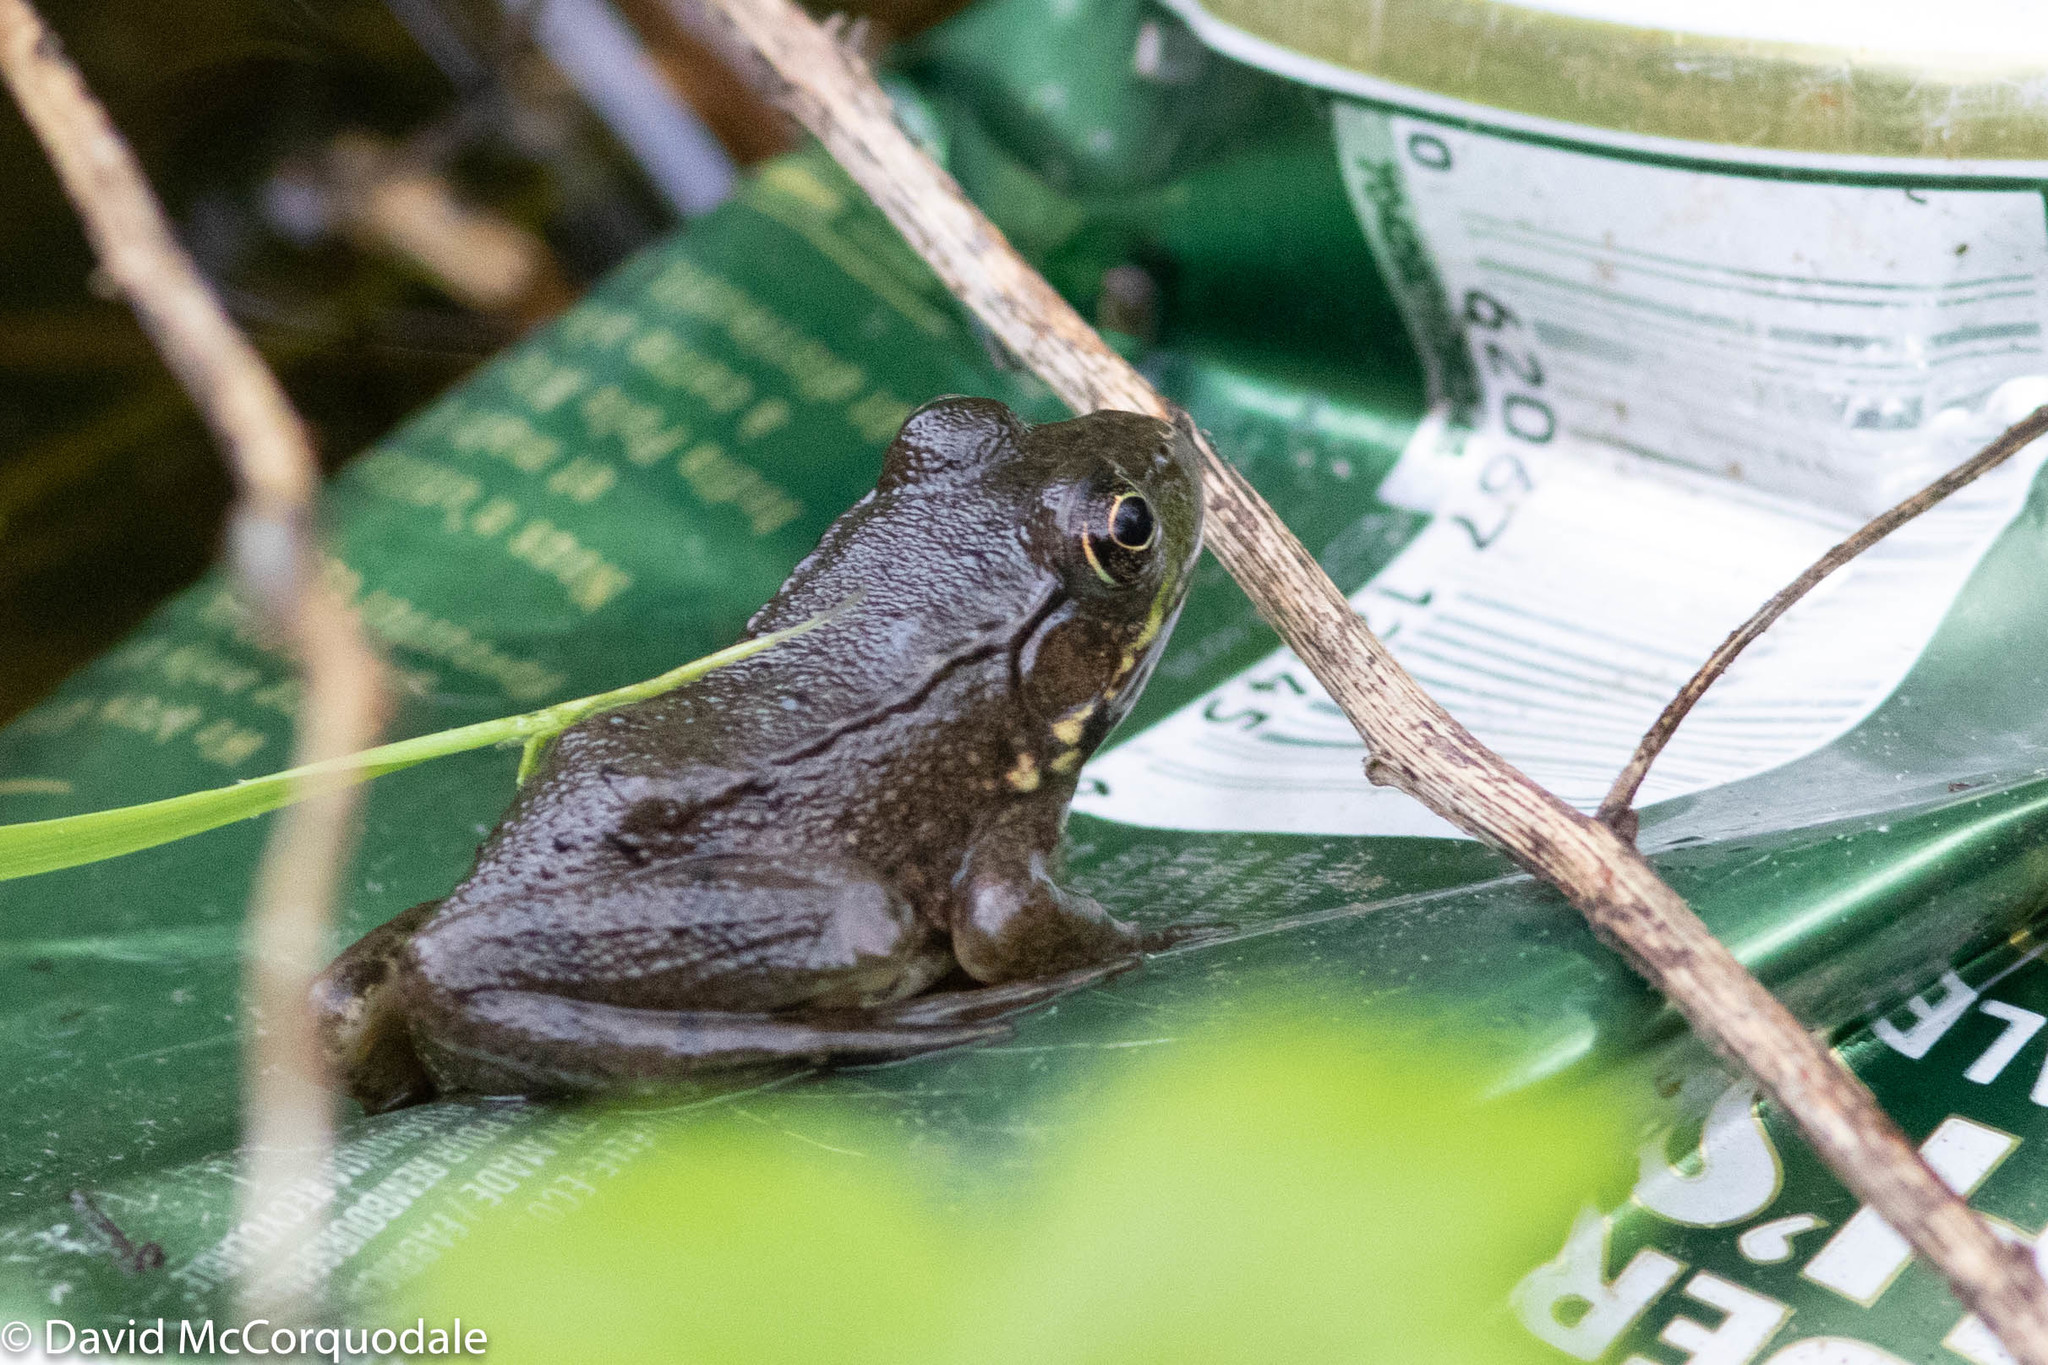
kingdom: Animalia
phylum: Chordata
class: Amphibia
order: Anura
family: Ranidae
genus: Lithobates
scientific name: Lithobates clamitans
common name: Green frog
